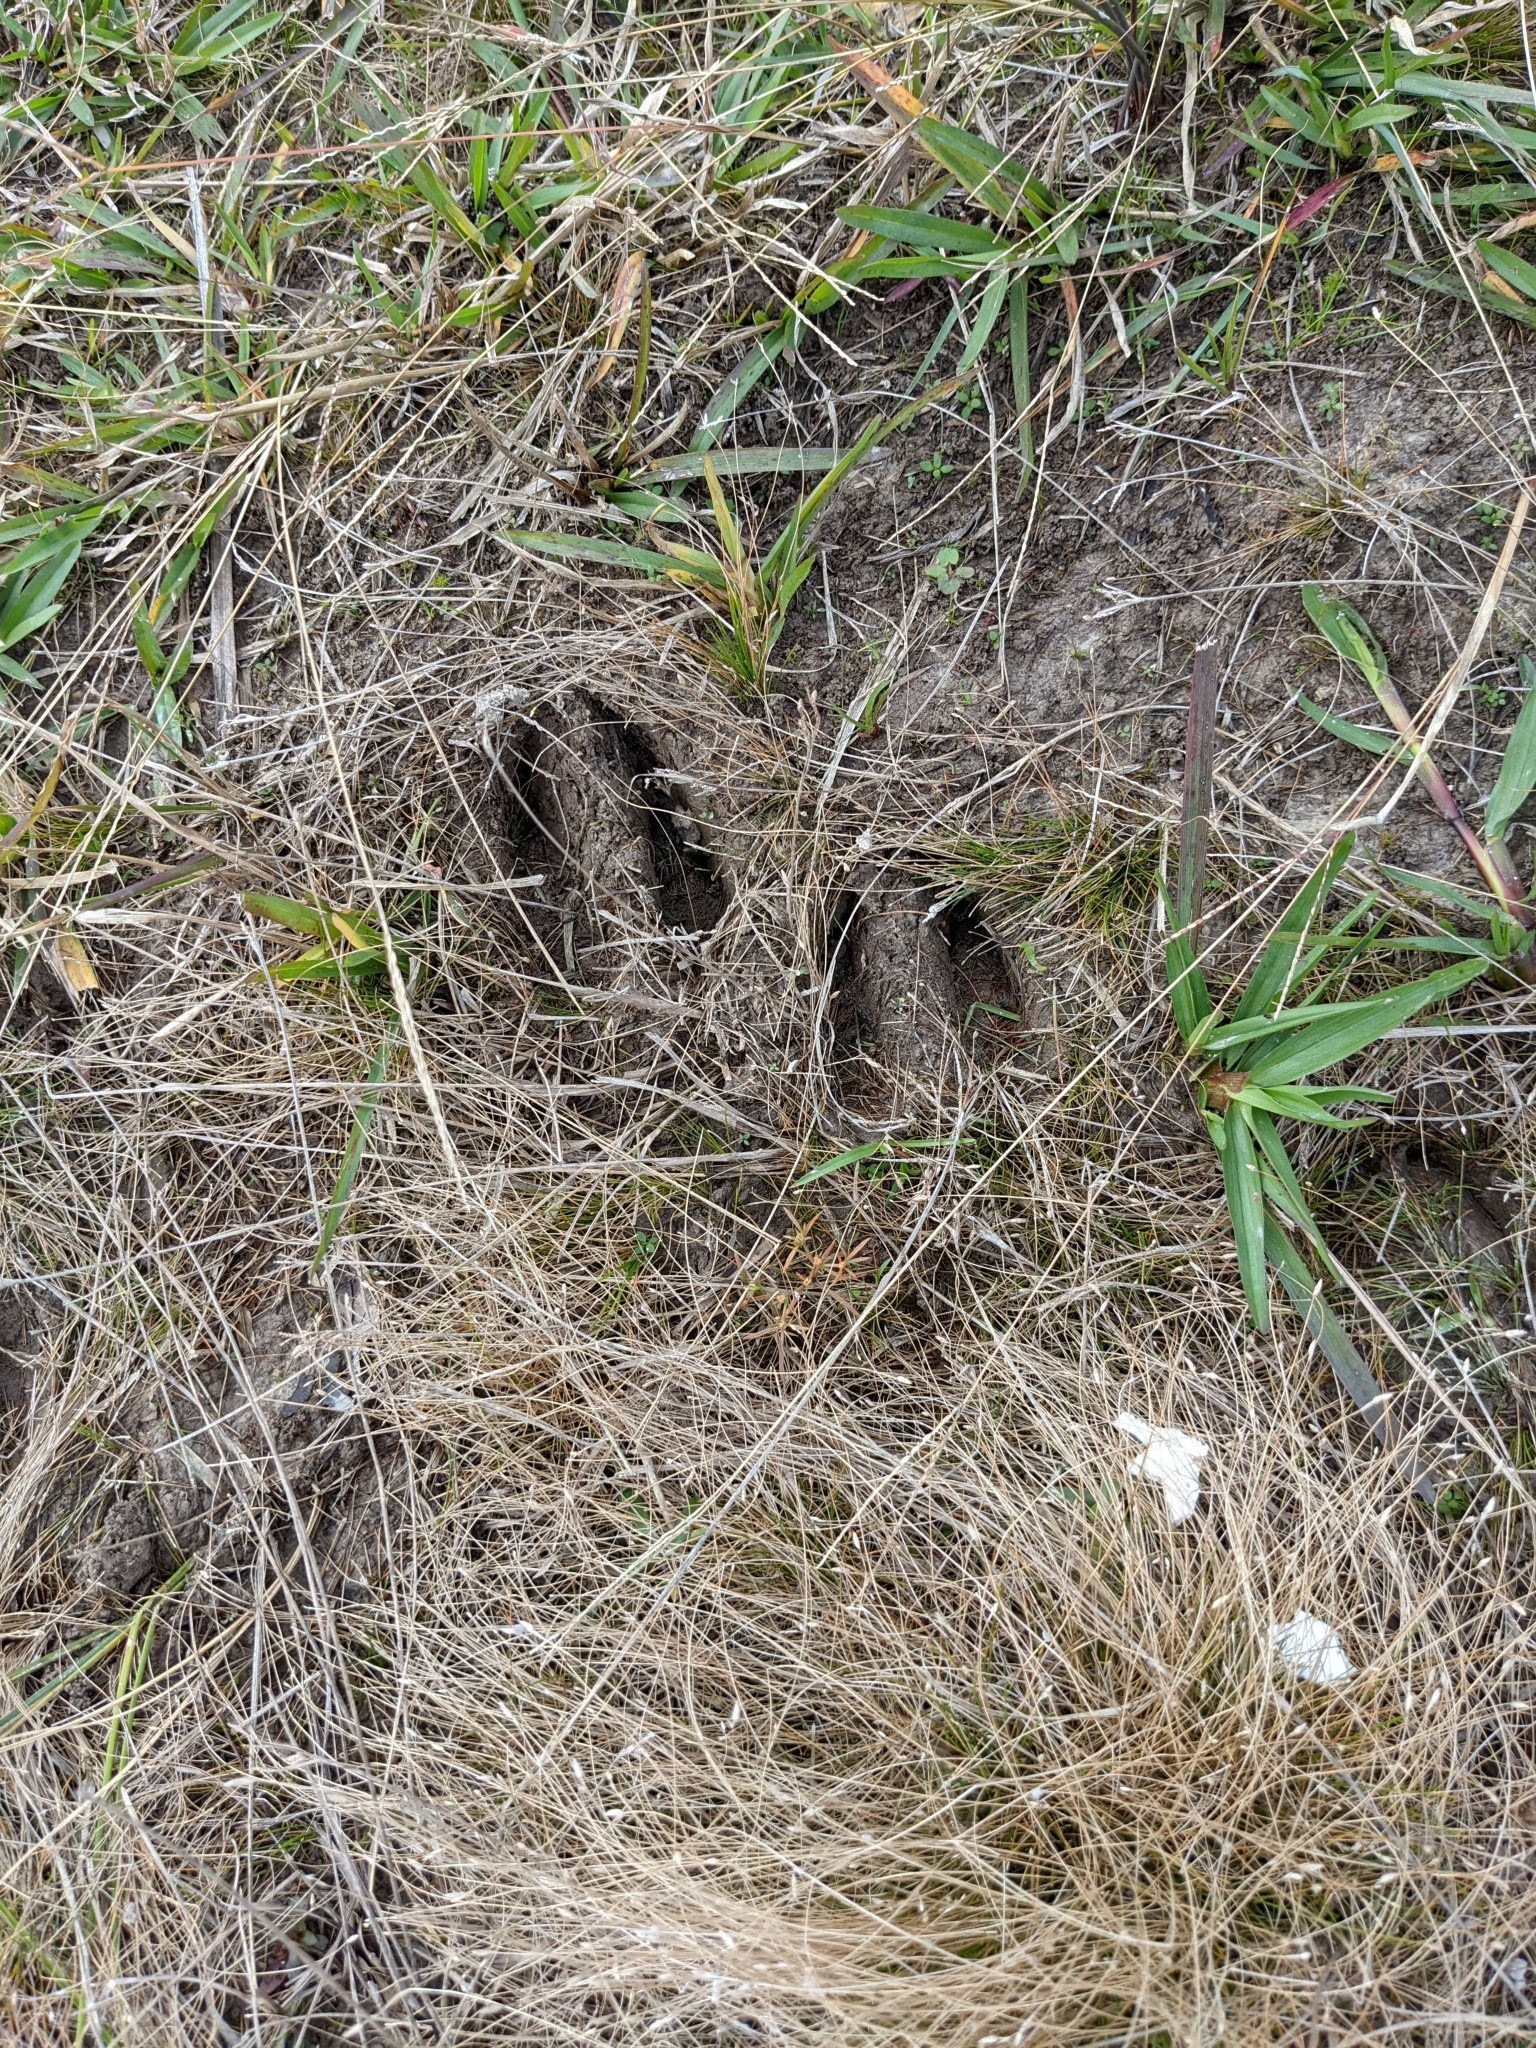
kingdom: Animalia
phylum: Chordata
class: Mammalia
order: Artiodactyla
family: Cervidae
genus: Odocoileus
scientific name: Odocoileus virginianus
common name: White-tailed deer
